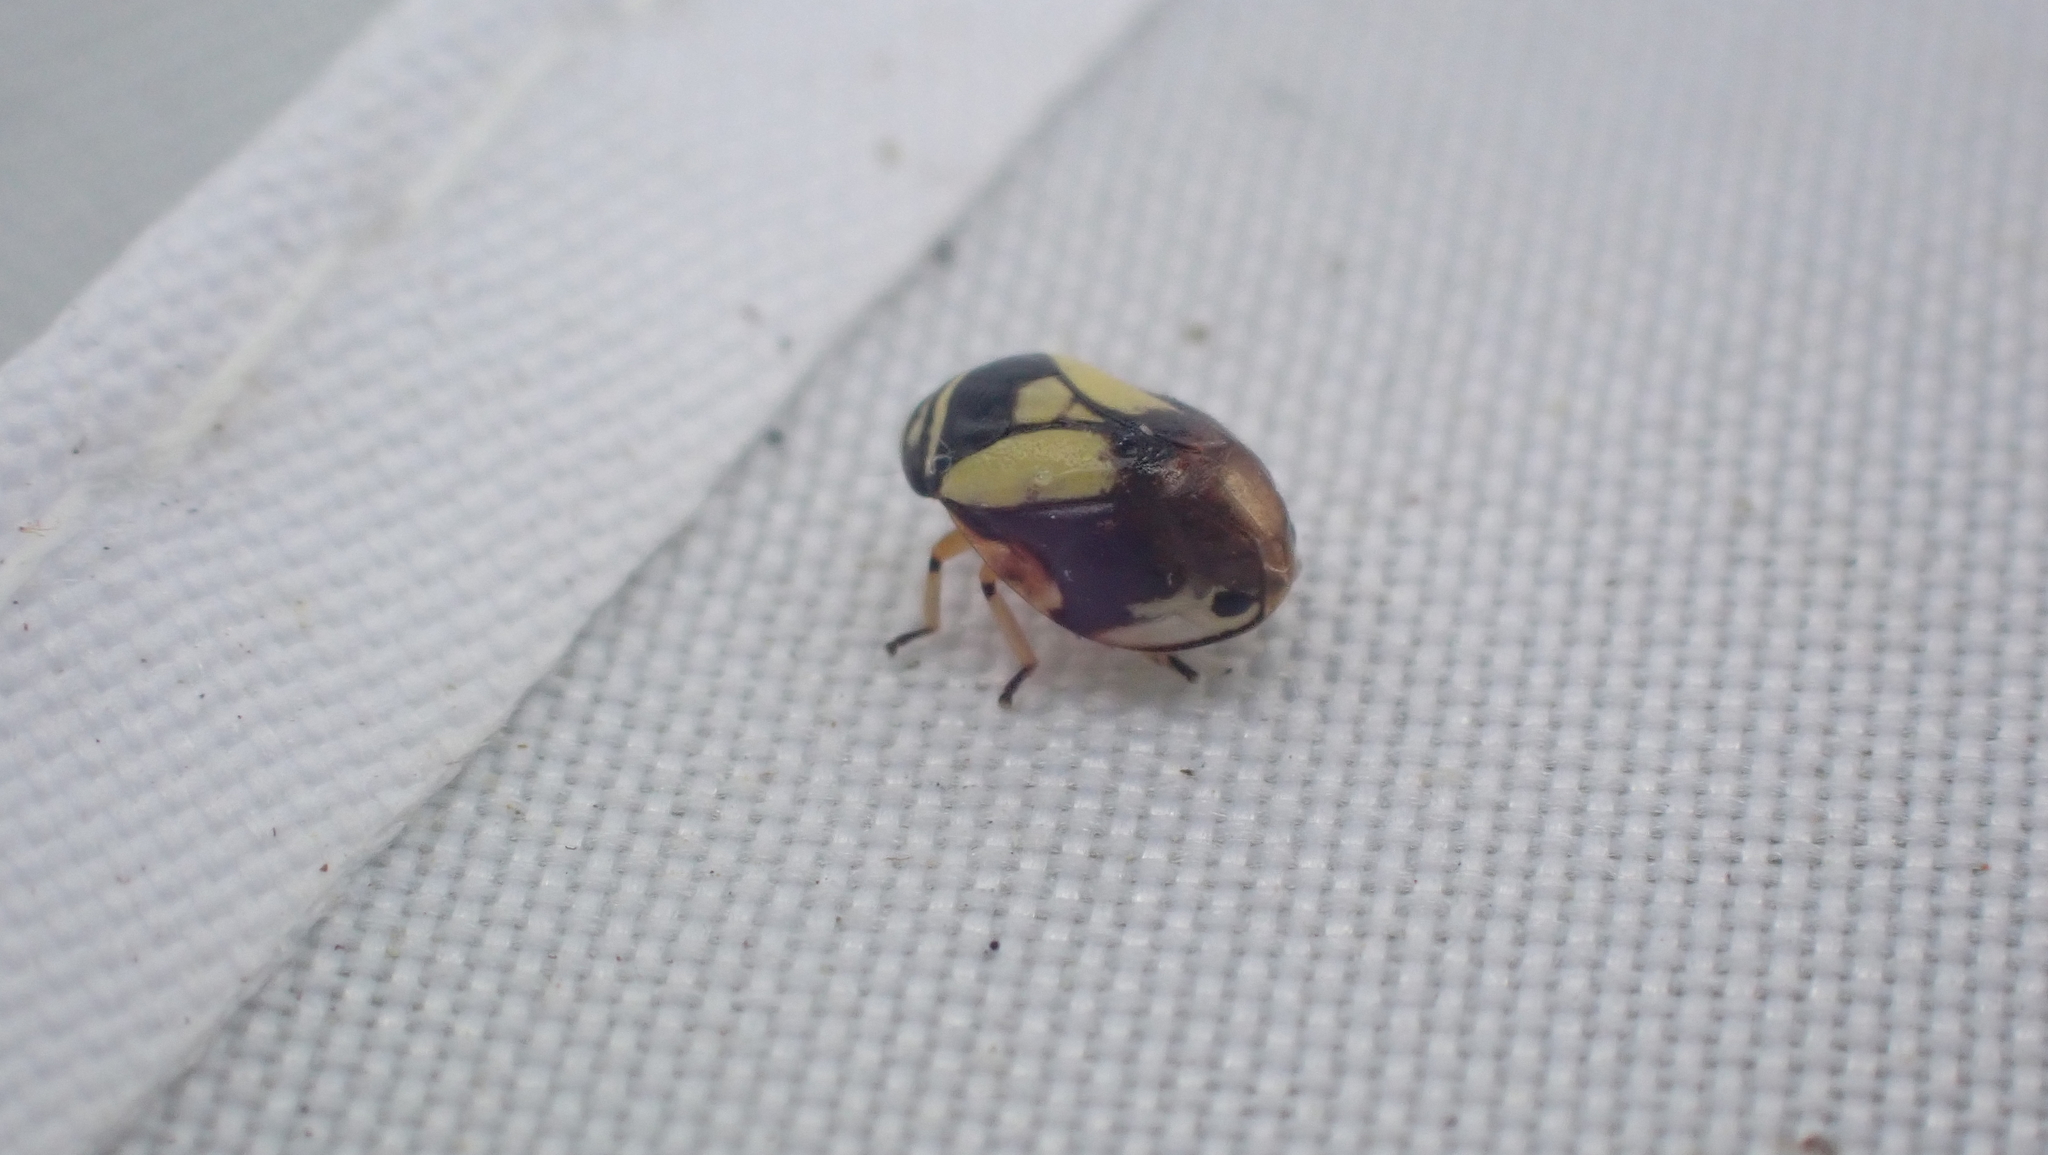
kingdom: Animalia
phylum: Arthropoda
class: Insecta
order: Hemiptera
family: Clastopteridae
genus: Clastoptera
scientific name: Clastoptera proteus
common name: Dogwood spittlebug
